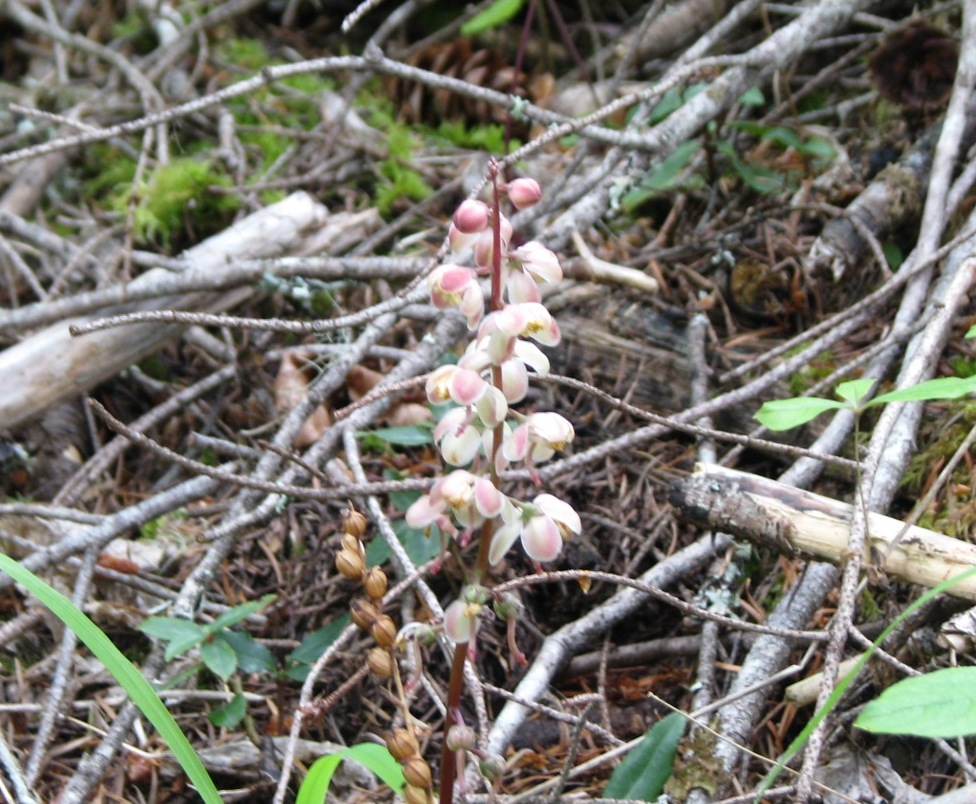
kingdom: Plantae
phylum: Tracheophyta
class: Magnoliopsida
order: Ericales
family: Ericaceae
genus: Pyrola
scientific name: Pyrola
